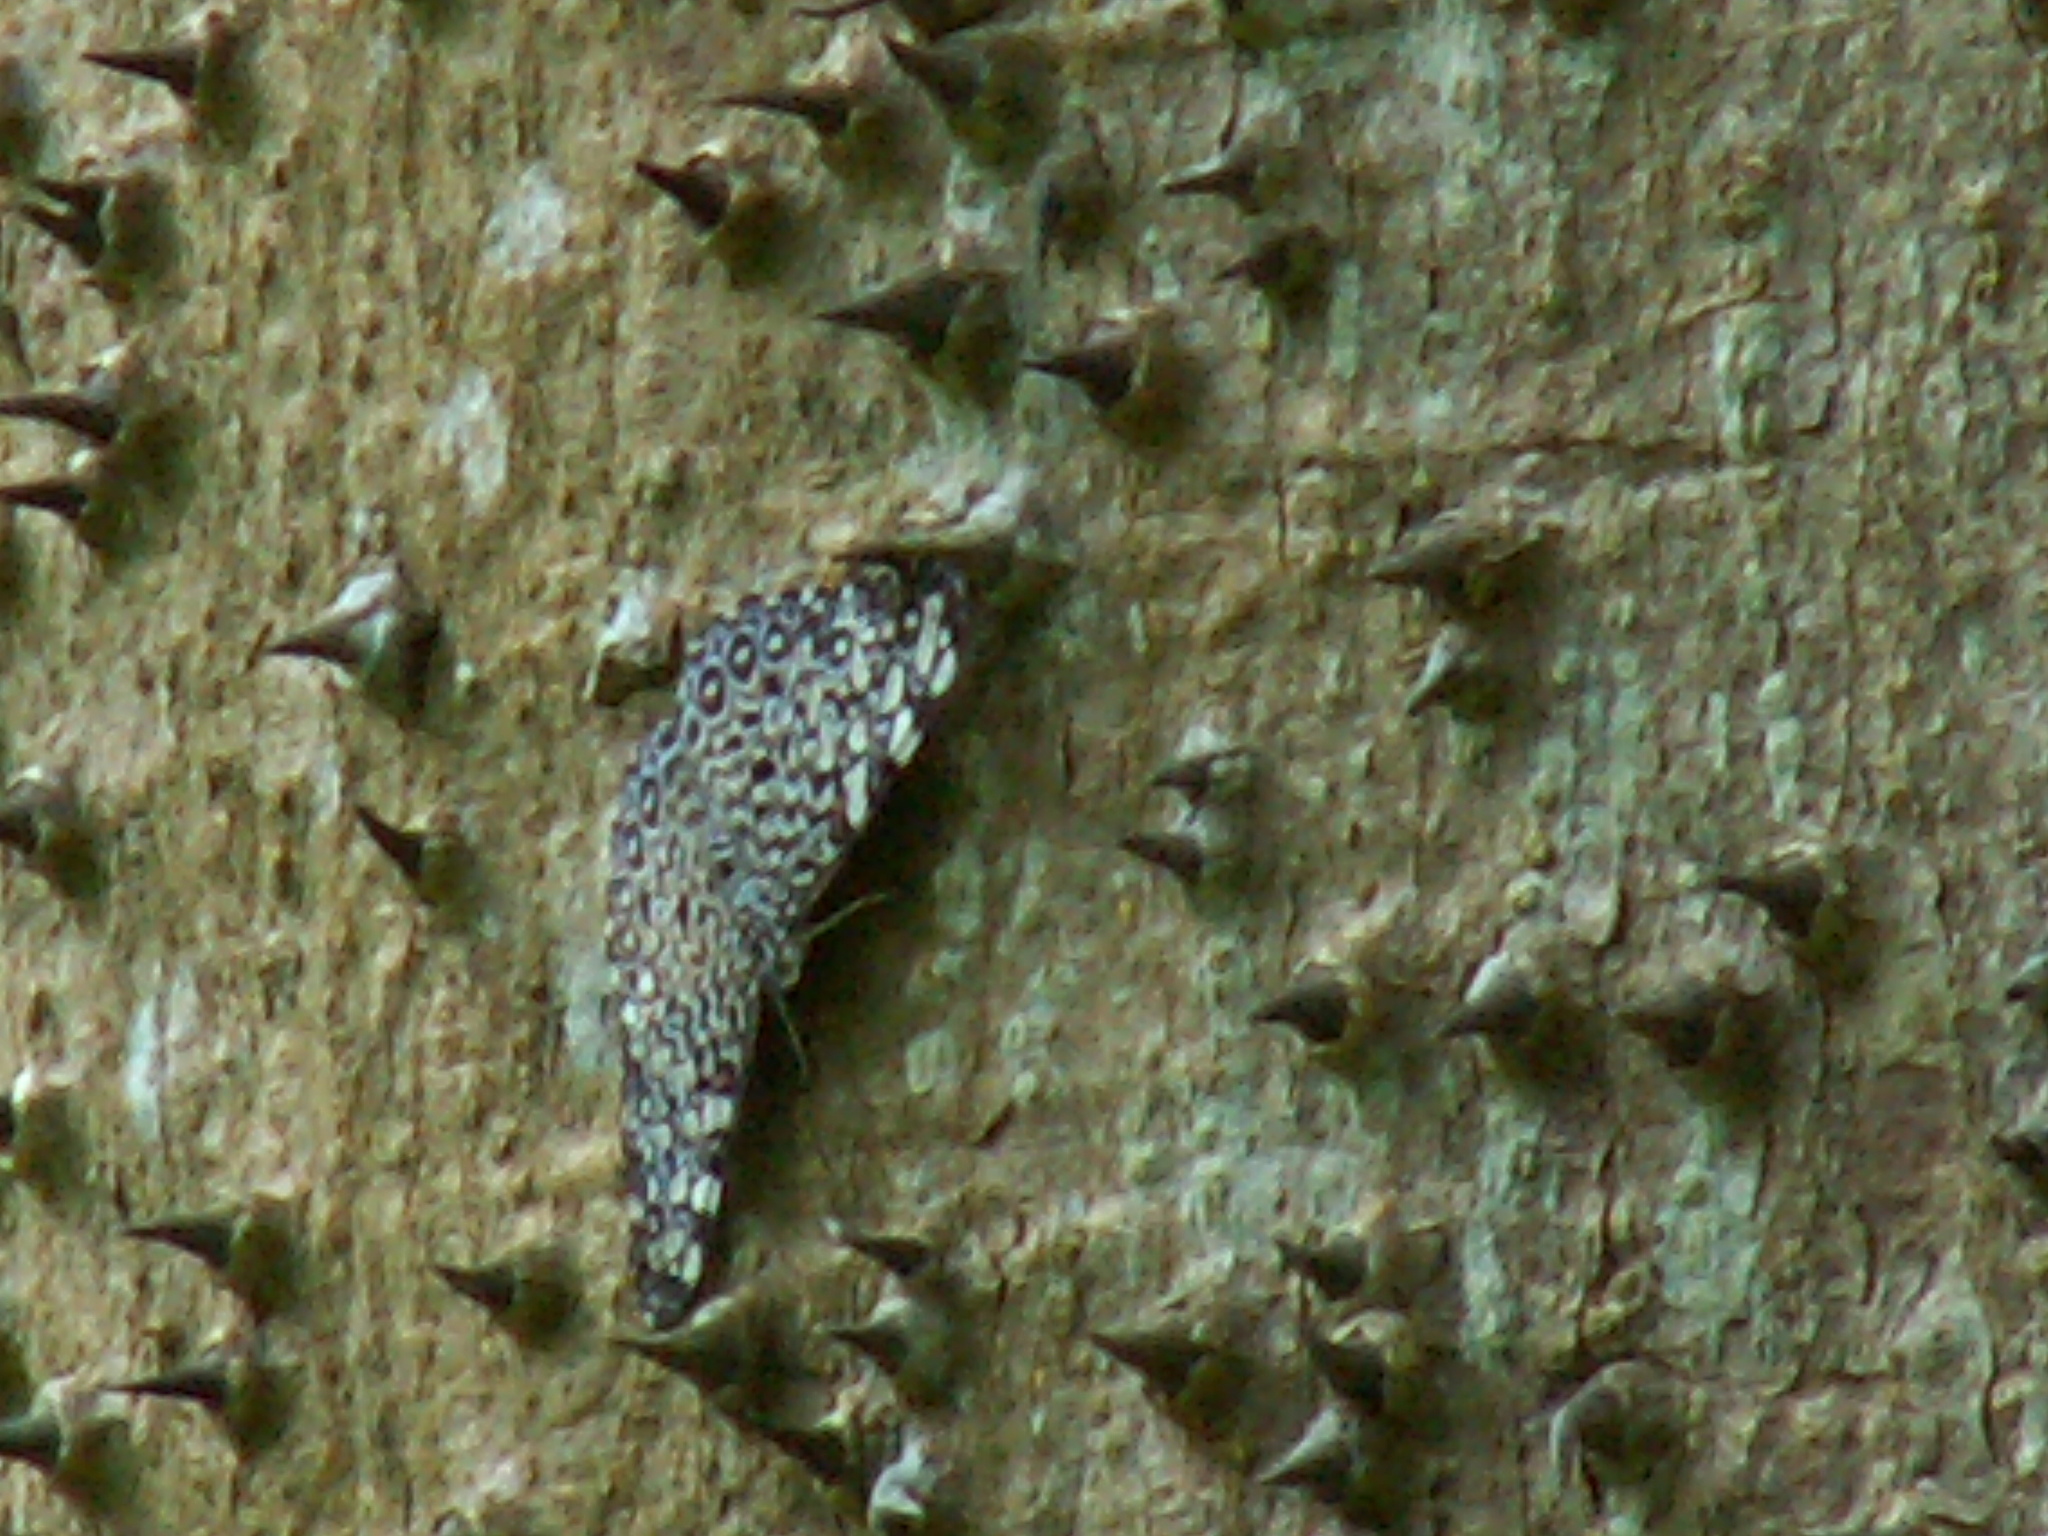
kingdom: Animalia
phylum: Arthropoda
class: Insecta
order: Lepidoptera
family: Nymphalidae
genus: Hamadryas
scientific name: Hamadryas feronia
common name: Variable cracker
